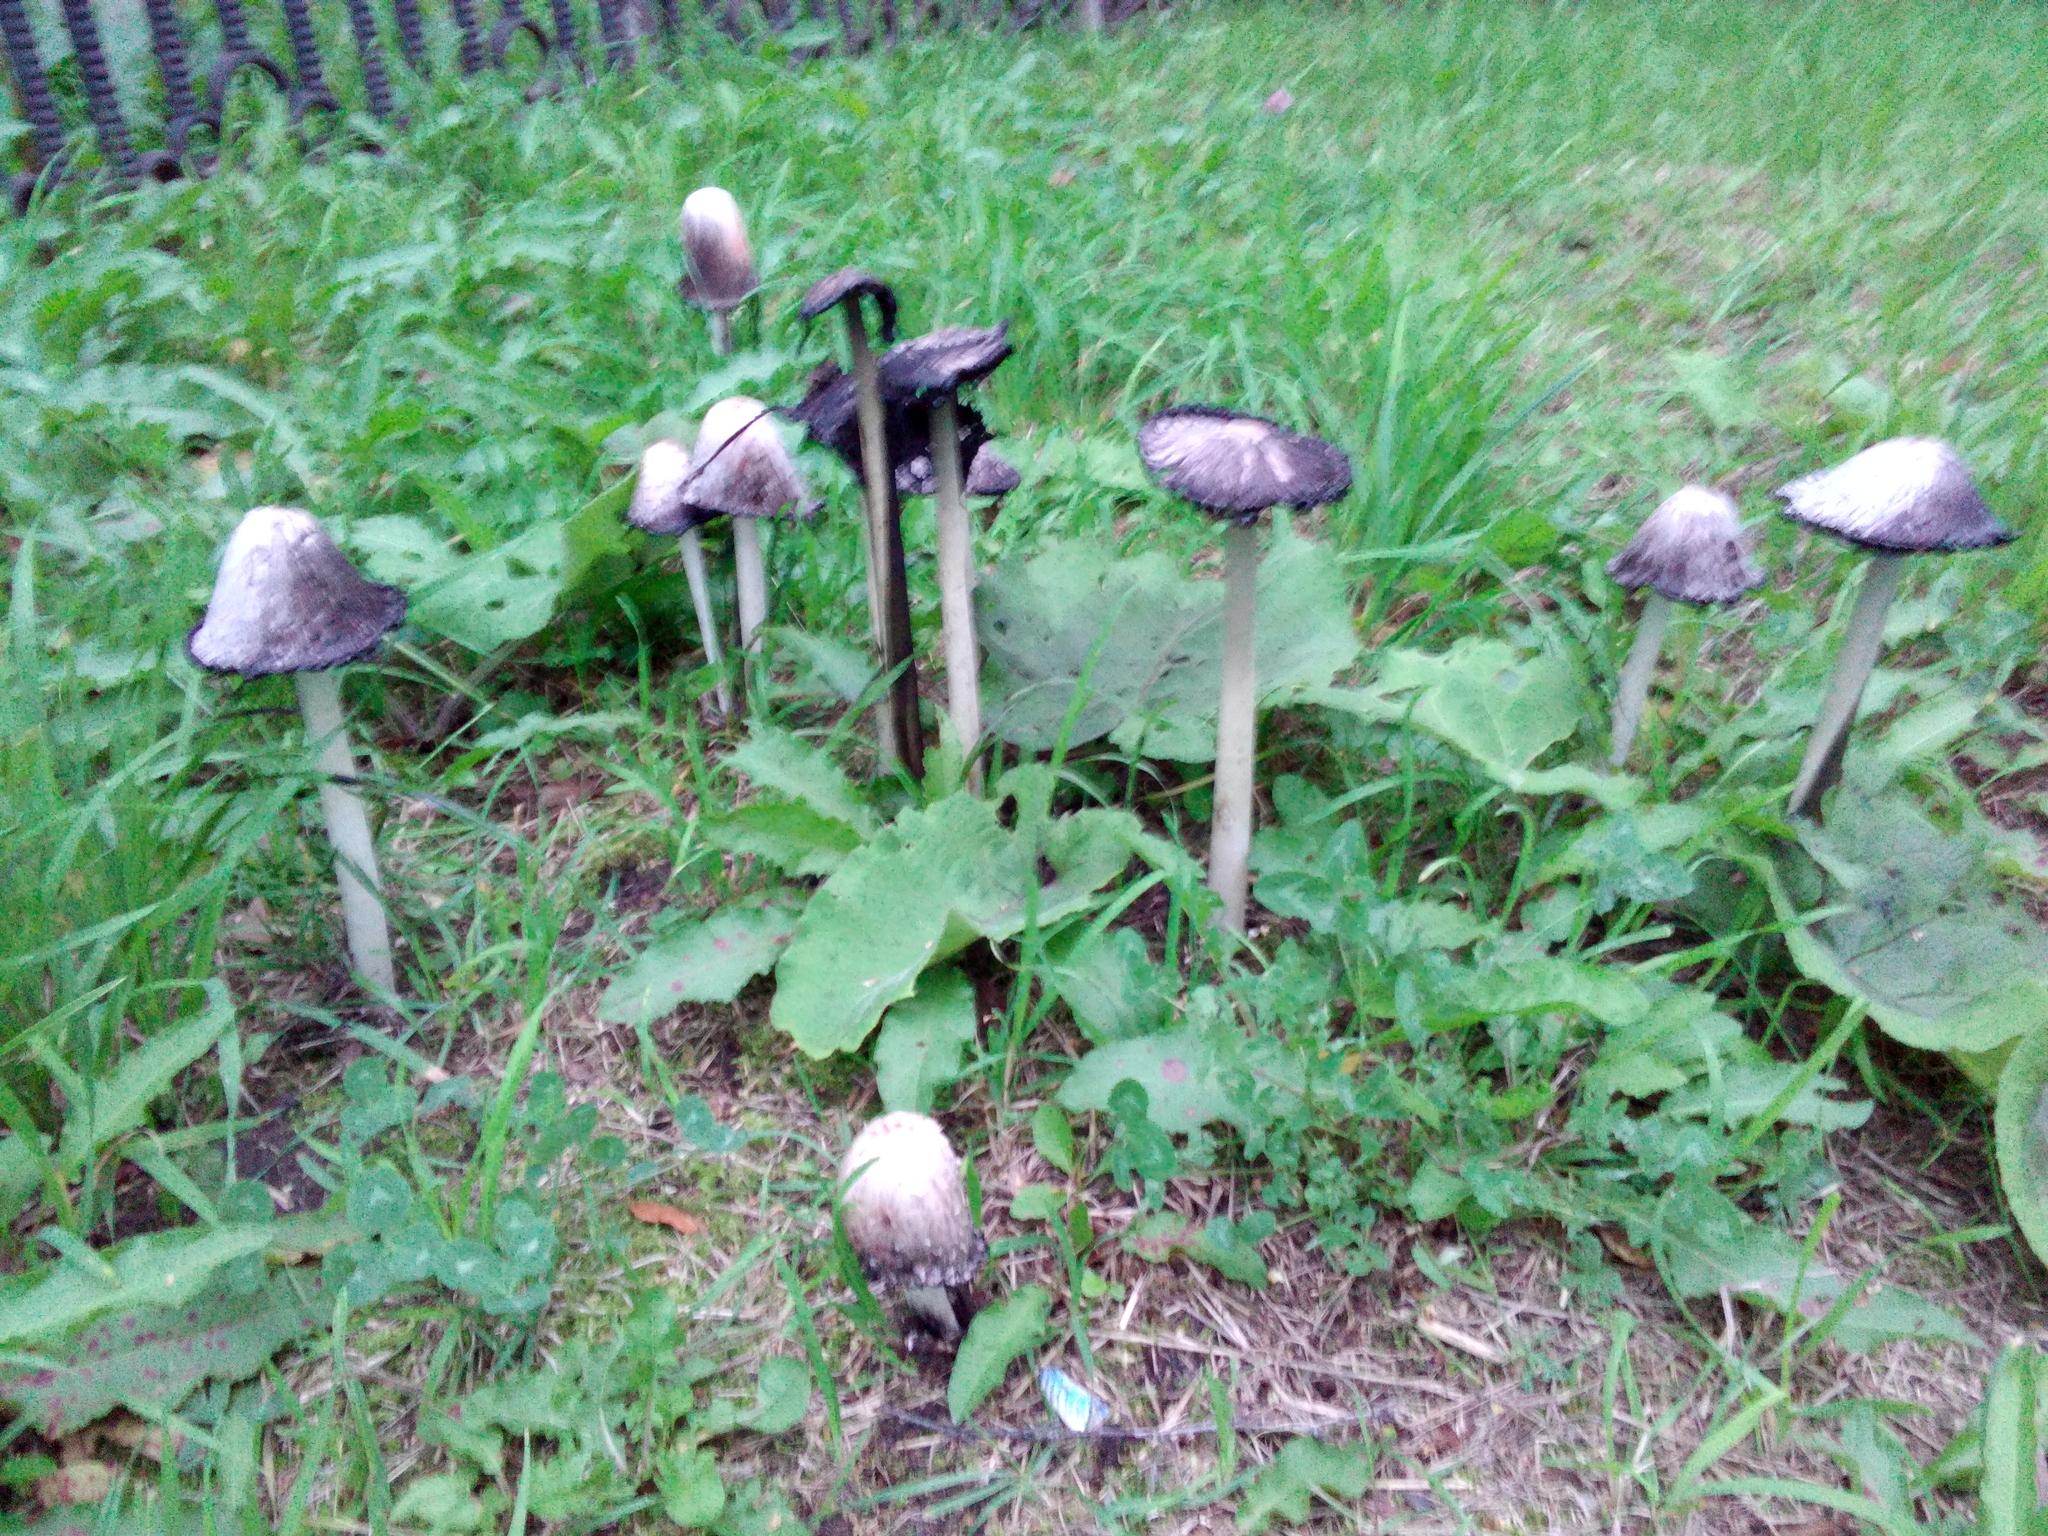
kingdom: Fungi
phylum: Basidiomycota
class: Agaricomycetes
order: Agaricales
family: Agaricaceae
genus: Coprinus
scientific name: Coprinus comatus
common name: Lawyer's wig
